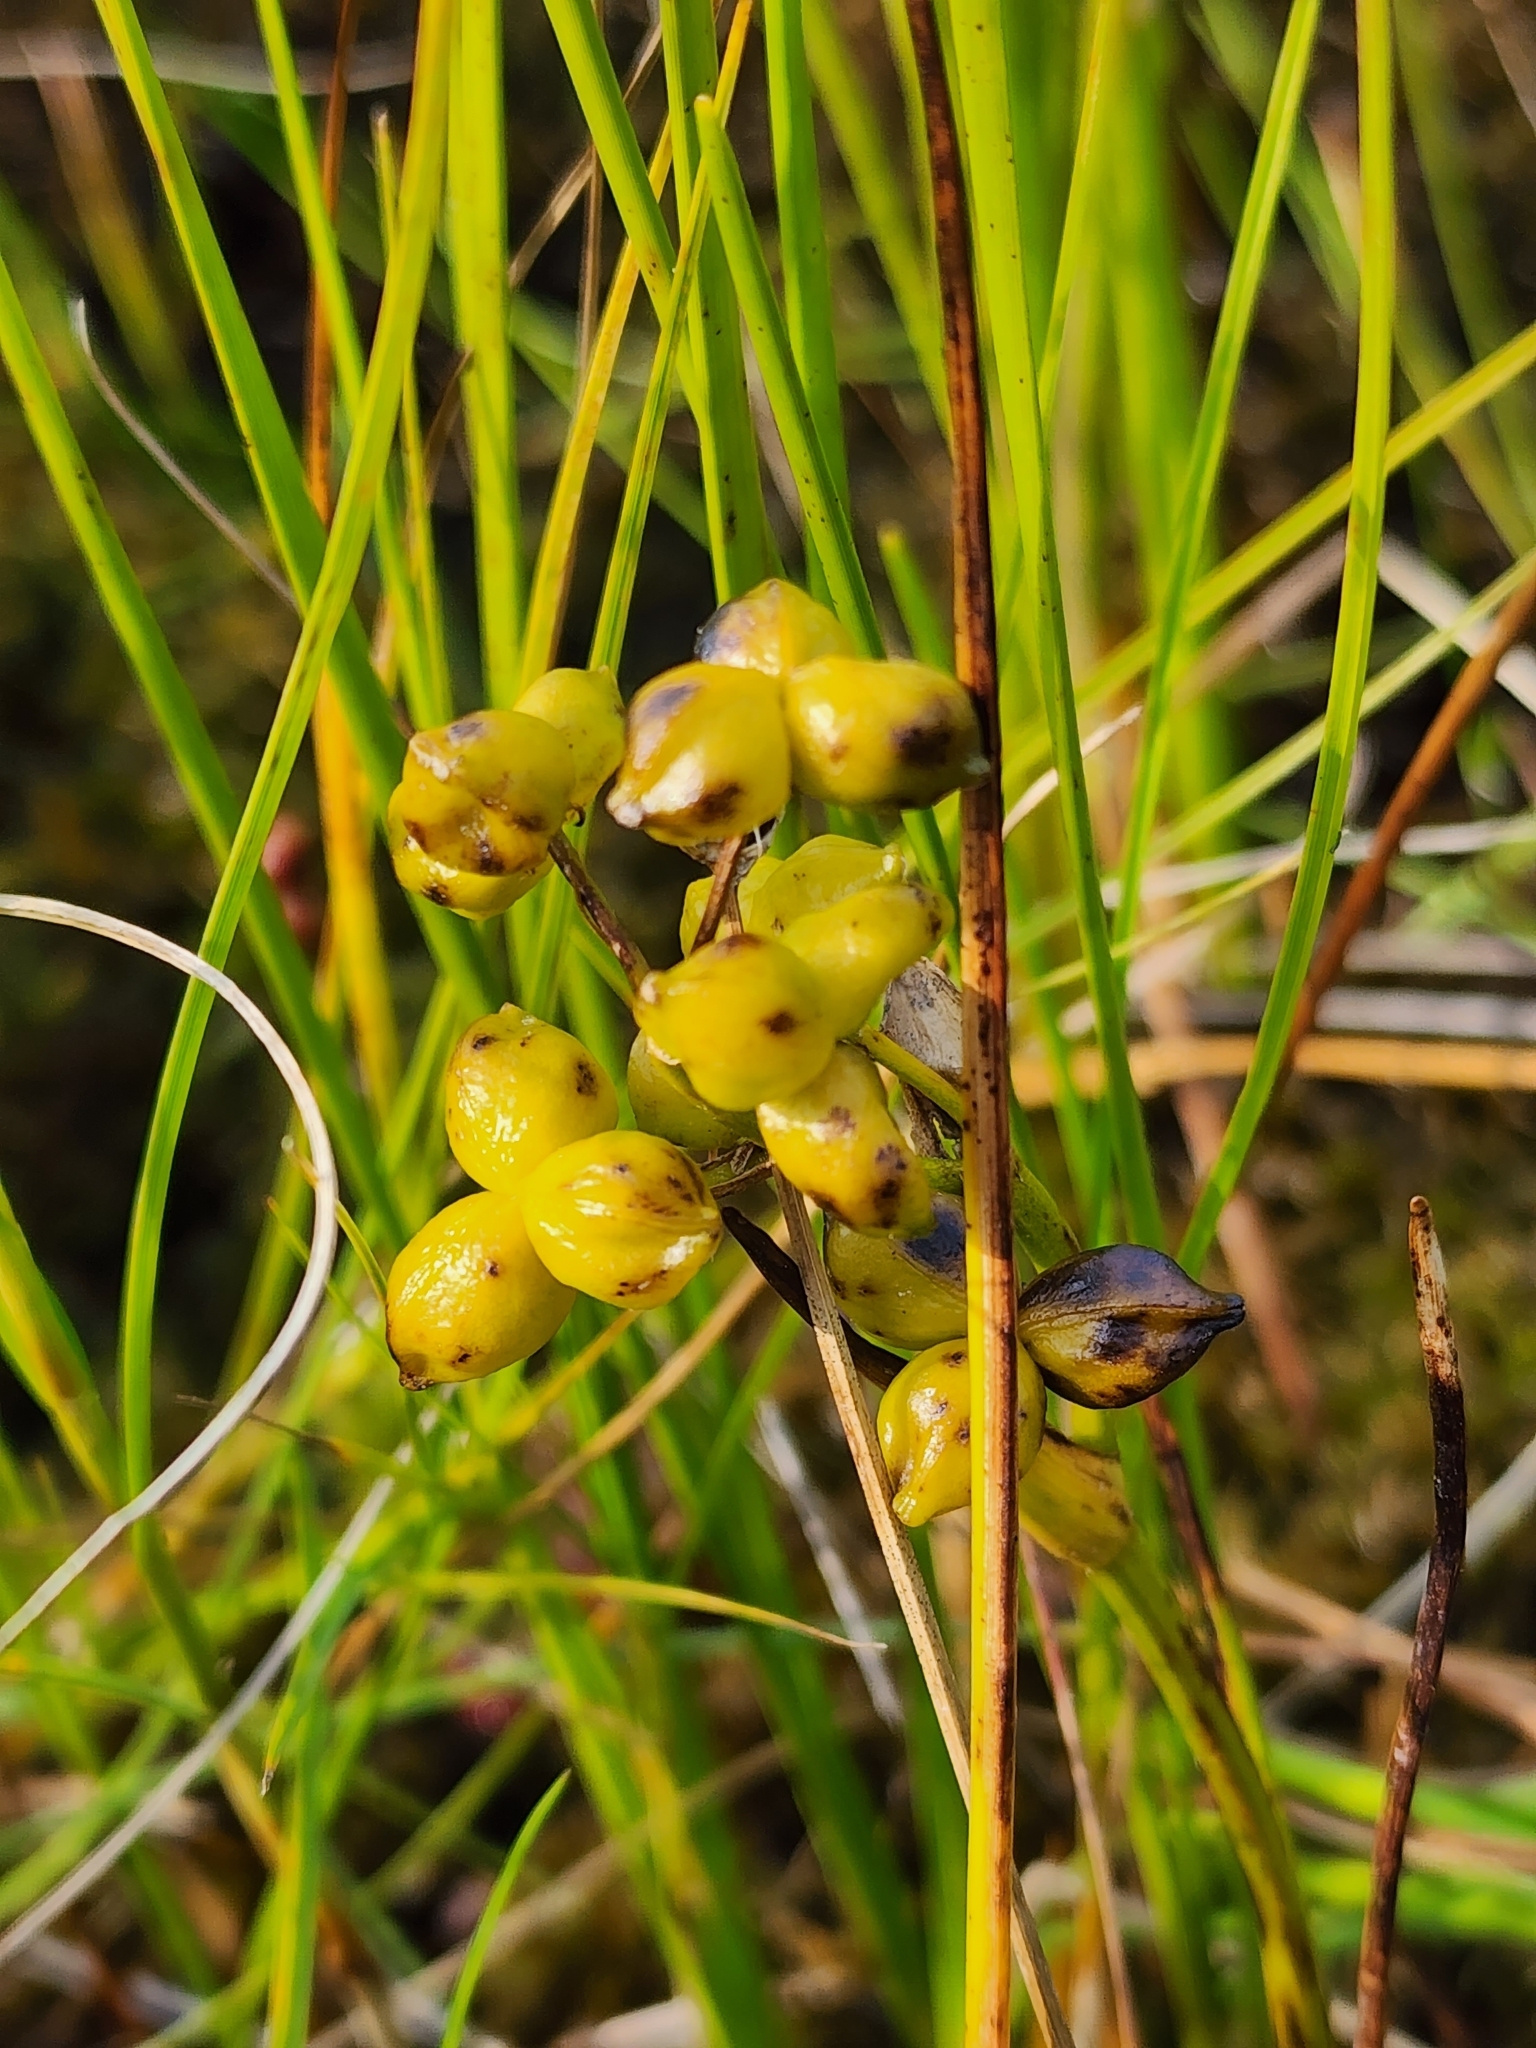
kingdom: Plantae
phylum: Tracheophyta
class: Liliopsida
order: Alismatales
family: Scheuchzeriaceae
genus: Scheuchzeria
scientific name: Scheuchzeria palustris
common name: Rannoch-rush
